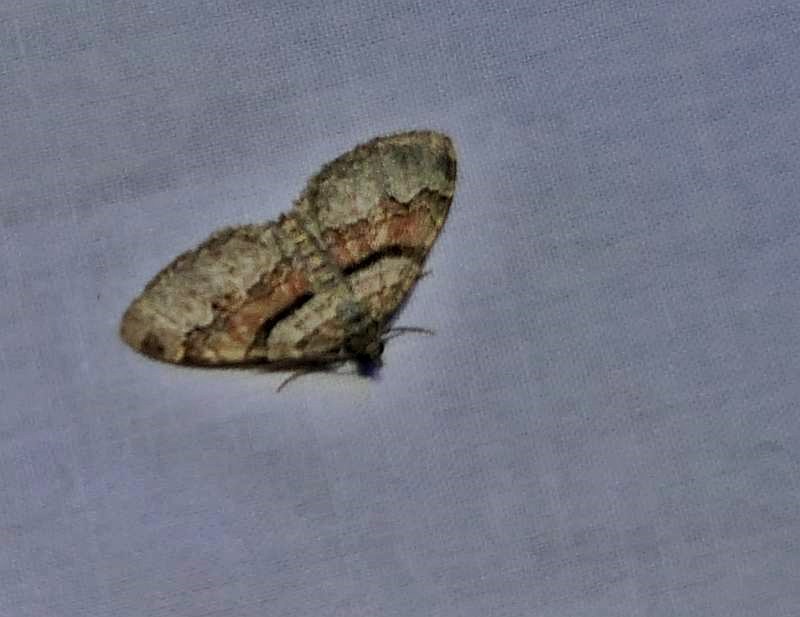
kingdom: Animalia
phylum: Arthropoda
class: Insecta
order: Lepidoptera
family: Geometridae
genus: Xanthorhoe
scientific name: Xanthorhoe labradorensis
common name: Labrador carpet
